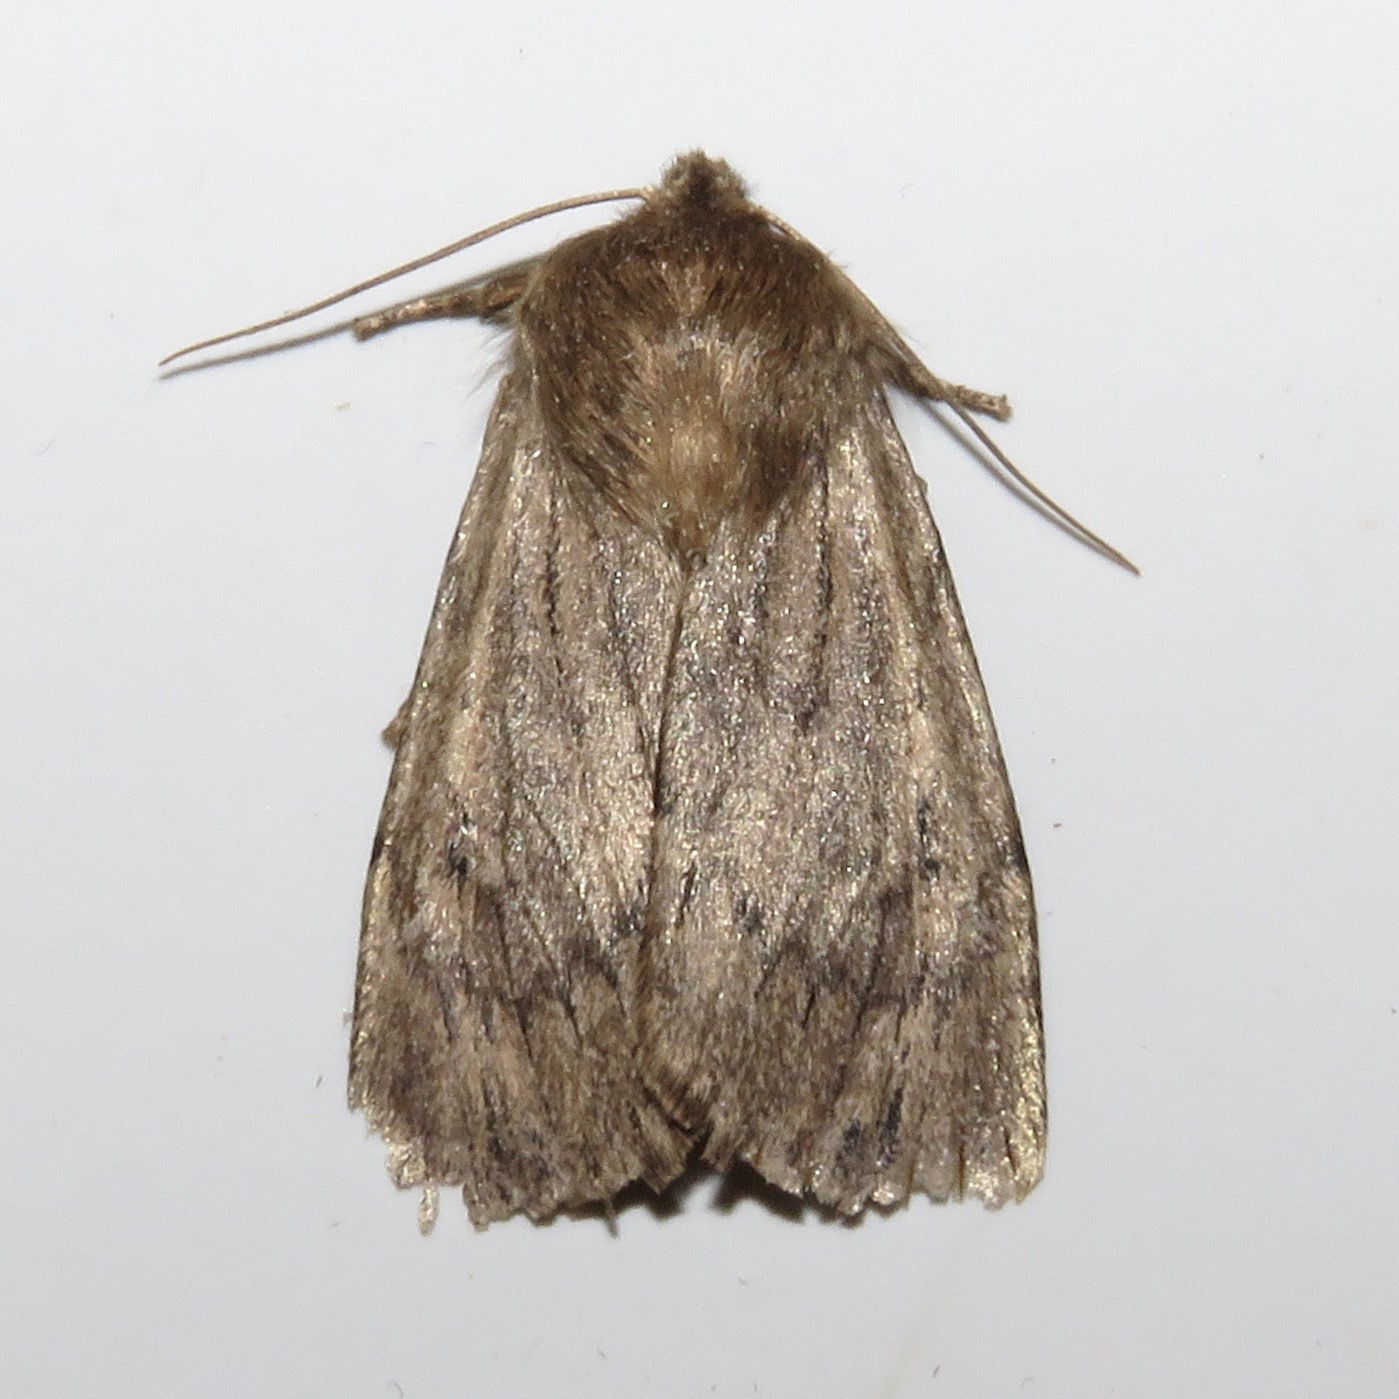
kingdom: Animalia
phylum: Arthropoda
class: Insecta
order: Lepidoptera
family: Noctuidae
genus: Ufeus
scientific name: Ufeus satyricus
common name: Brown satyr moth
